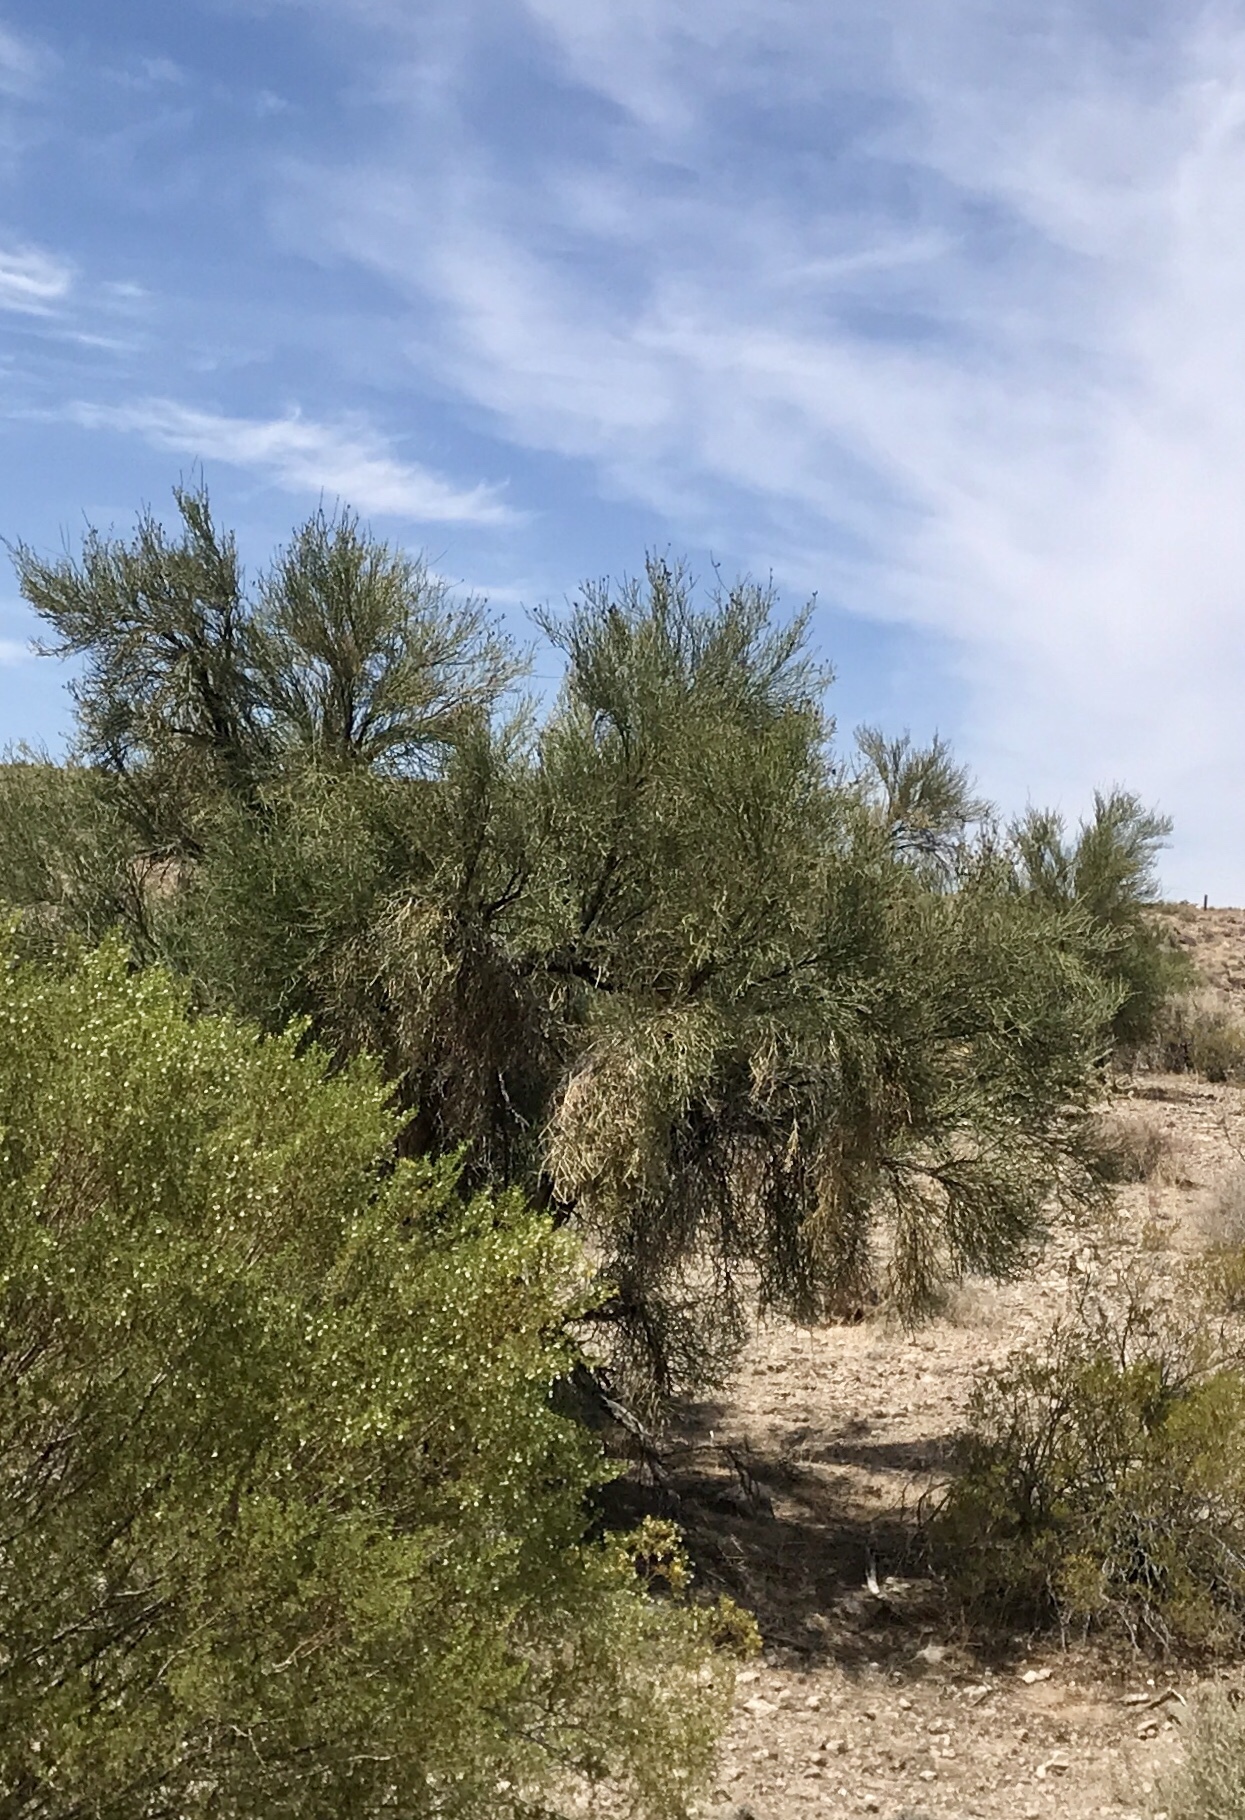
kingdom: Plantae
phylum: Tracheophyta
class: Magnoliopsida
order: Celastrales
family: Celastraceae
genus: Canotia
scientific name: Canotia holacantha
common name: Crucifixion thorns
